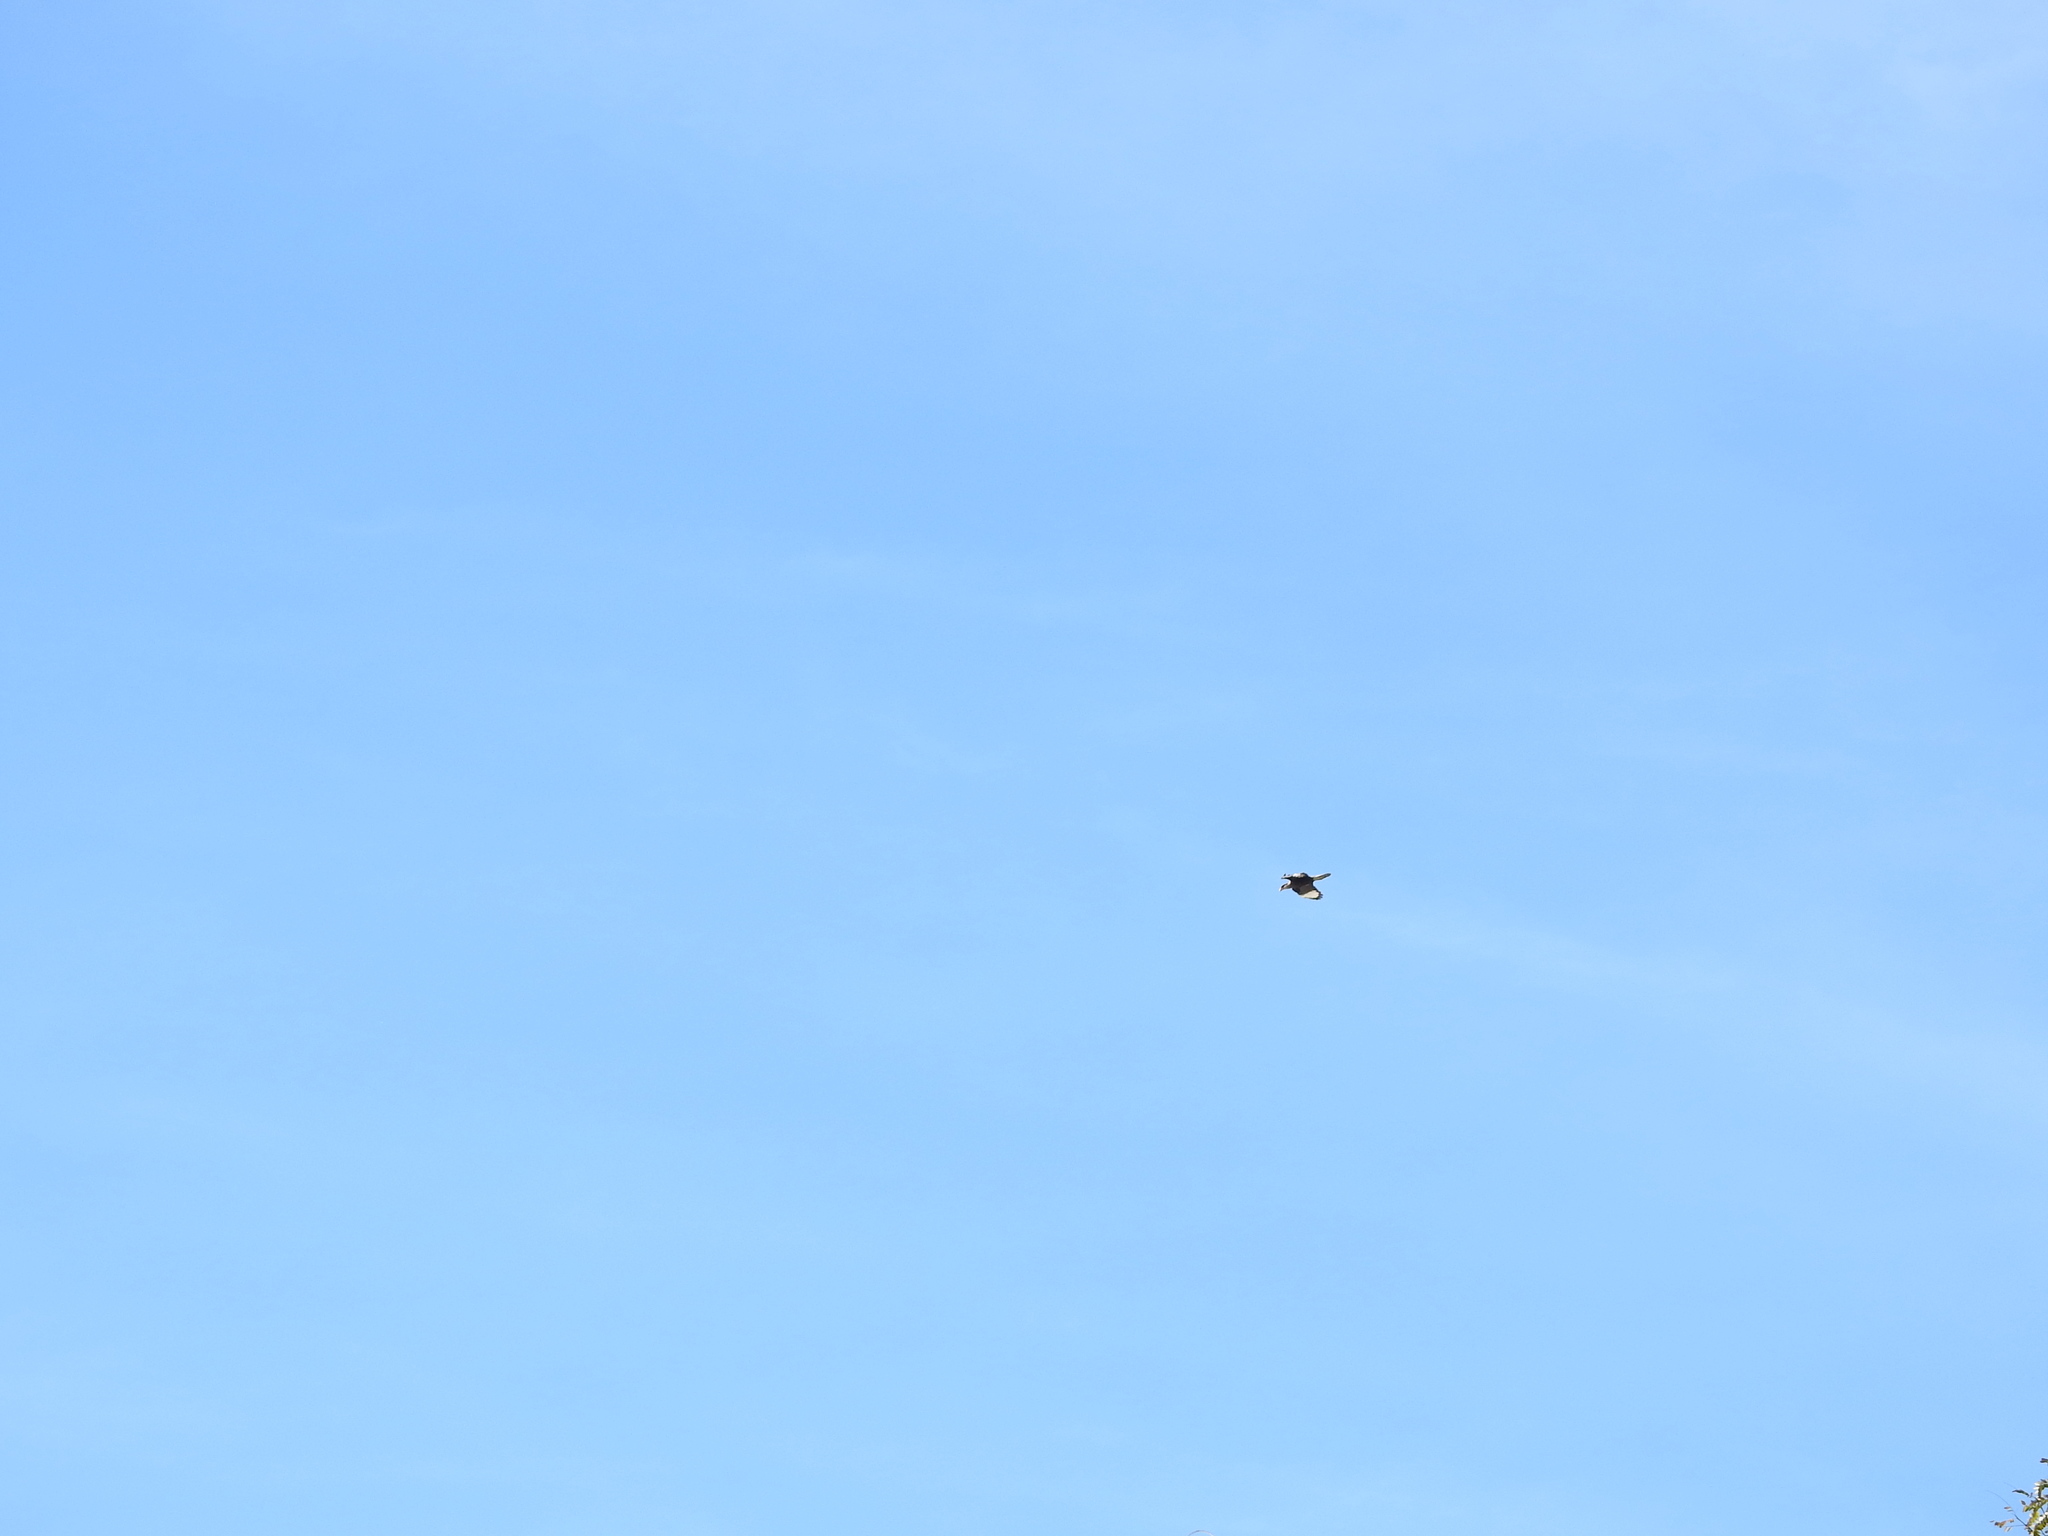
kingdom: Animalia
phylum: Chordata
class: Aves
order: Falconiformes
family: Falconidae
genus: Caracara
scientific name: Caracara plancus
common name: Southern caracara
